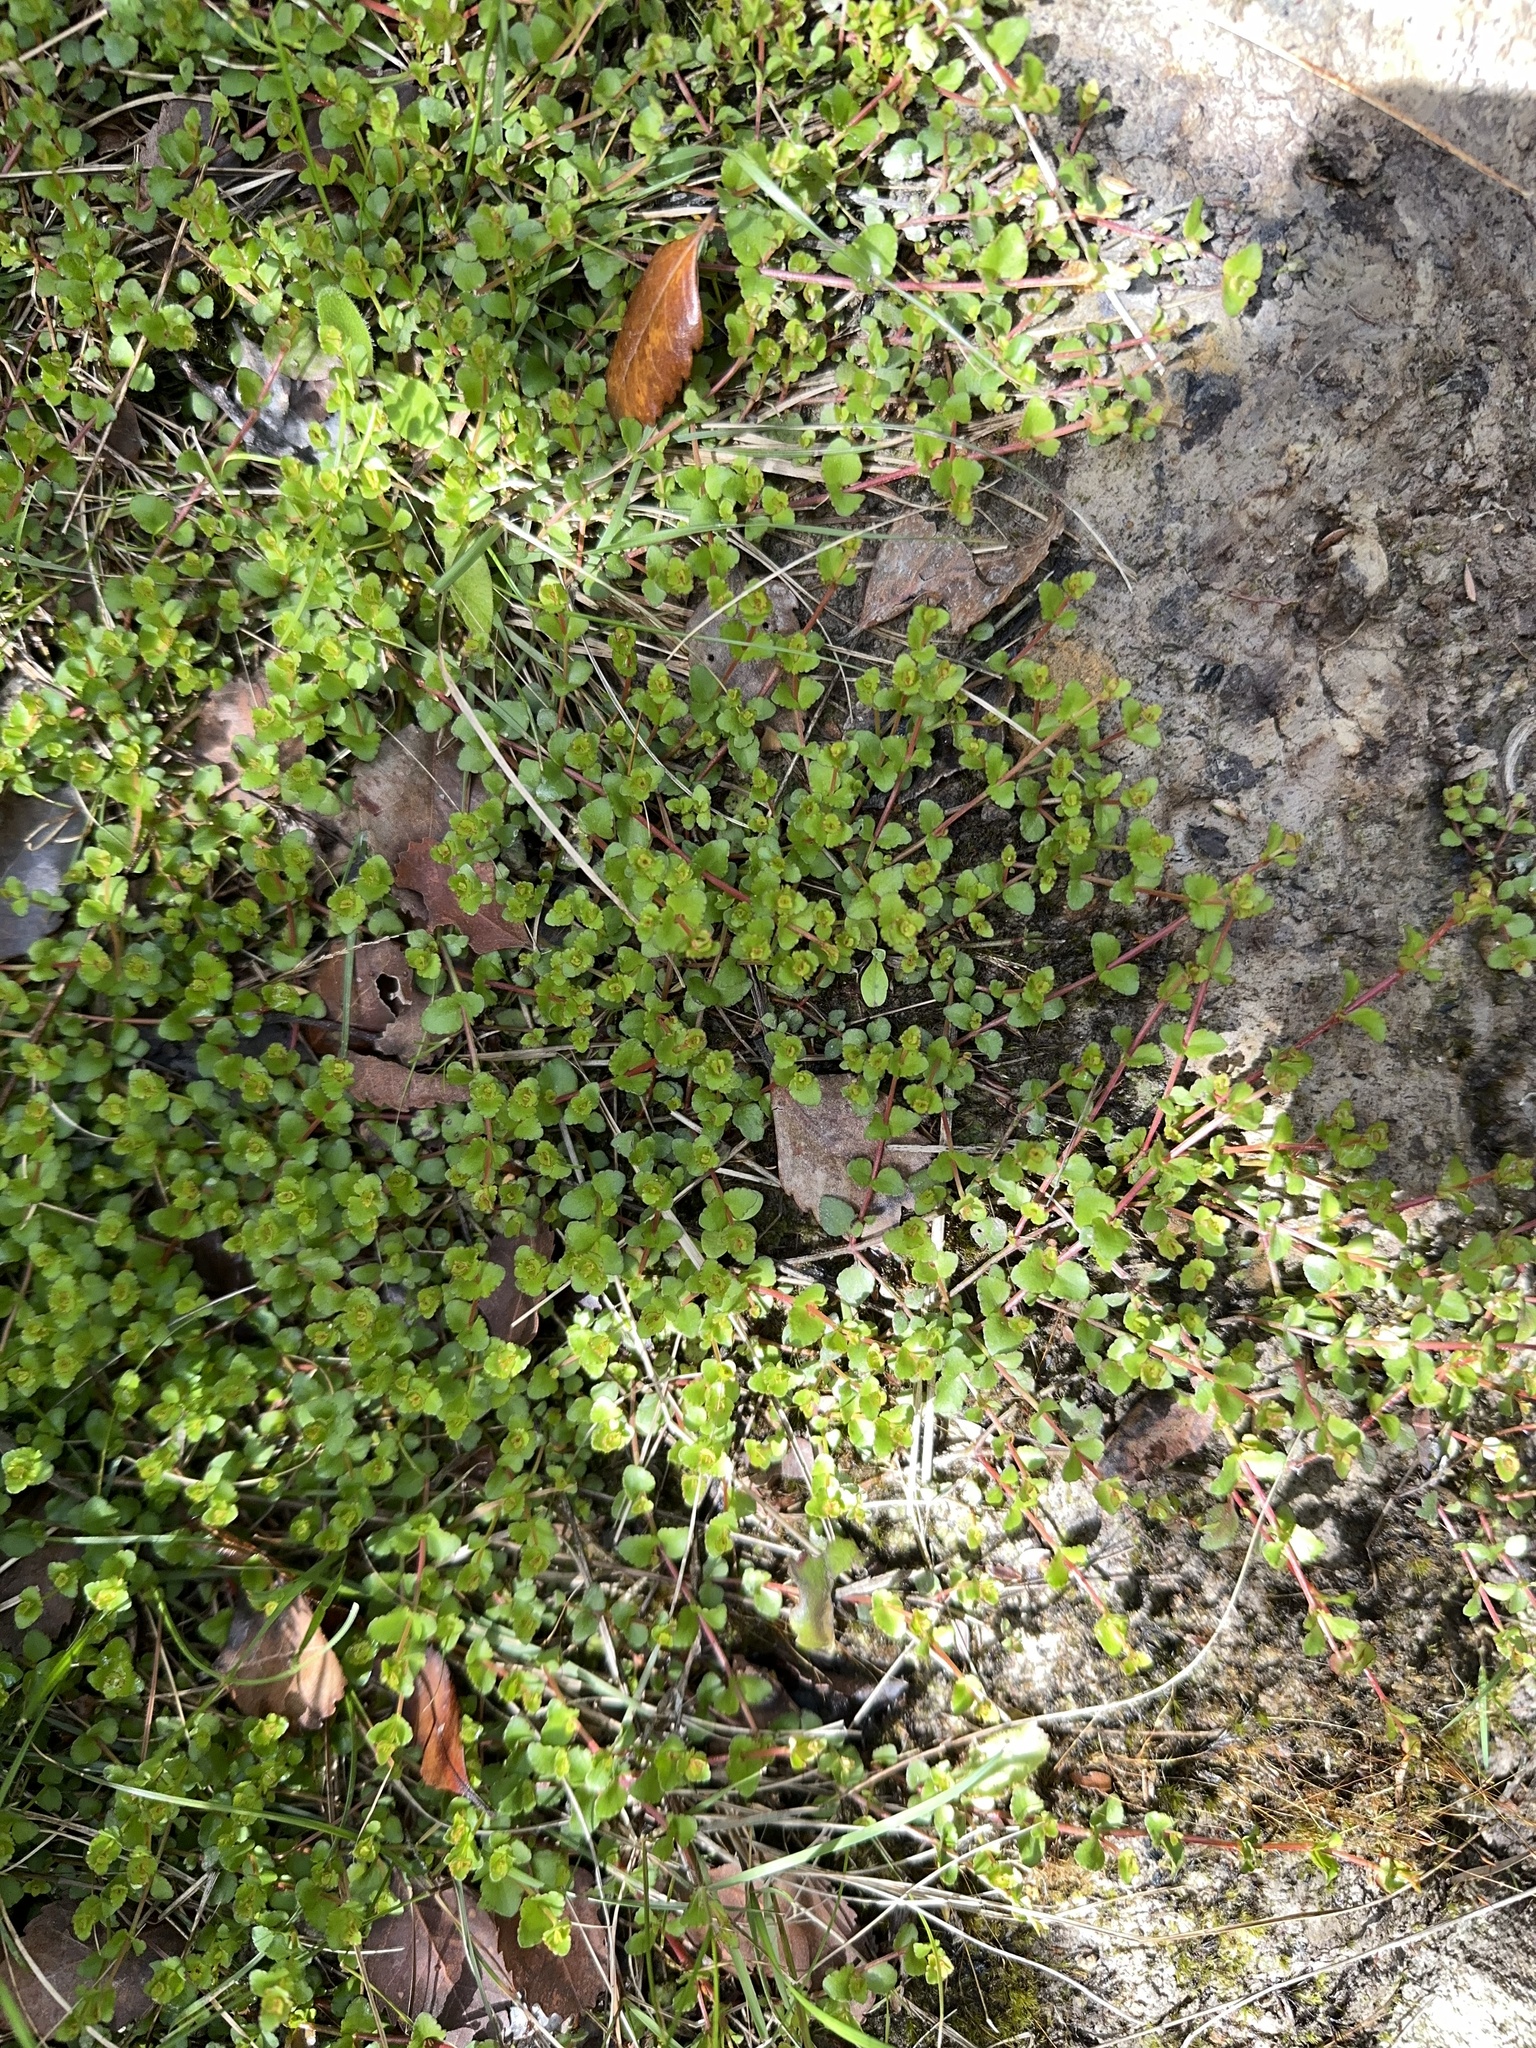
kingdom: Plantae
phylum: Tracheophyta
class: Magnoliopsida
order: Saxifragales
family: Haloragaceae
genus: Gonocarpus
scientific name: Gonocarpus micranthus
